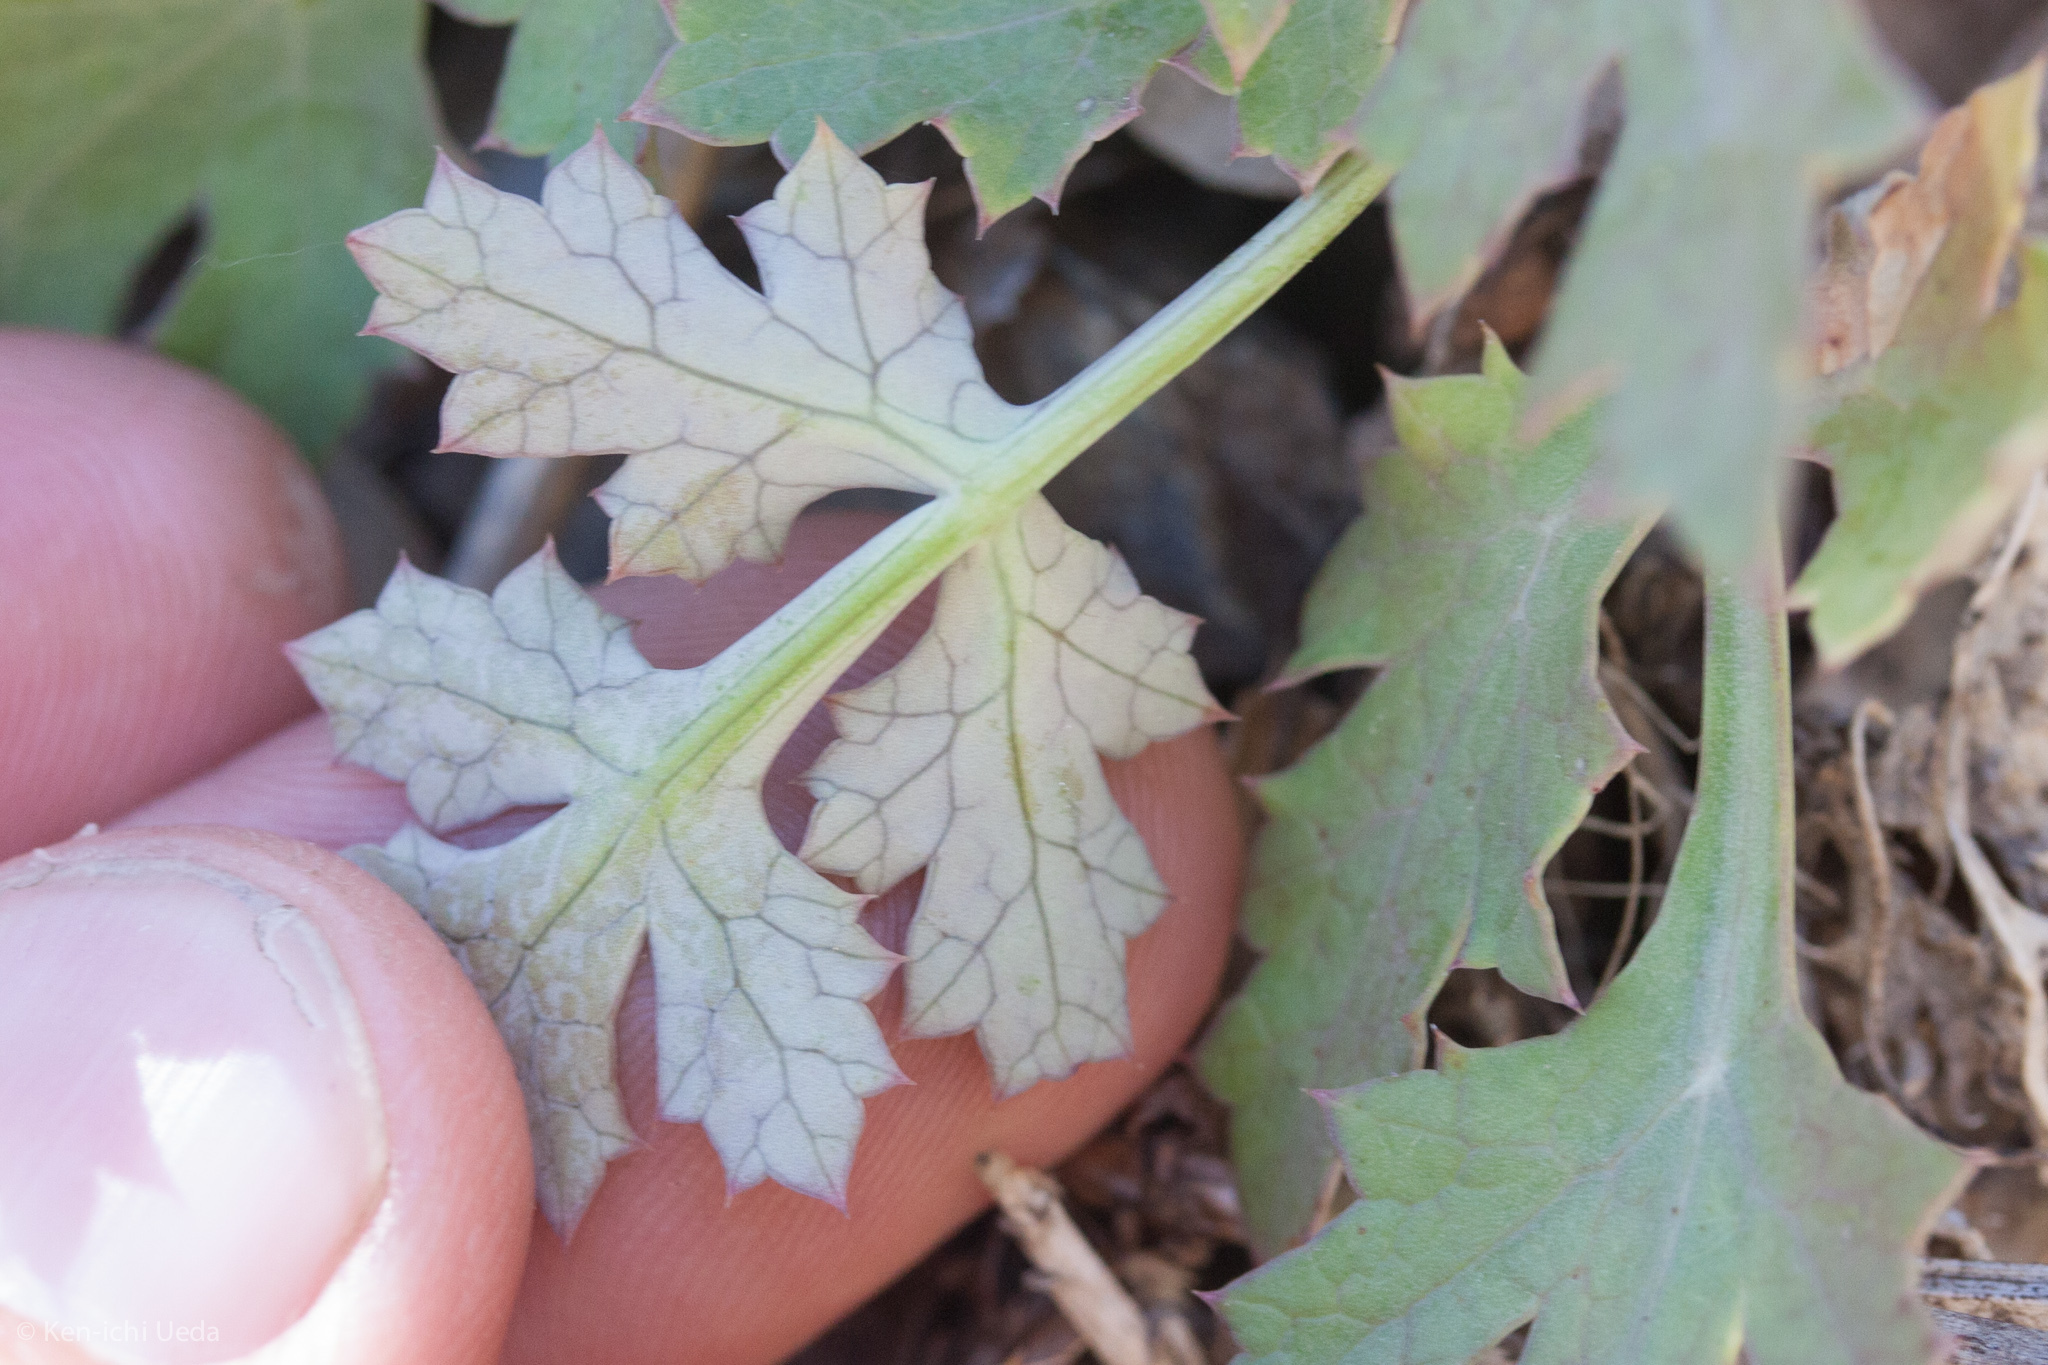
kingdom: Plantae
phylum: Tracheophyta
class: Magnoliopsida
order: Apiales
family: Apiaceae
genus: Lomatium
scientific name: Lomatium parvifolium
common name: Small-leaf lomatium
